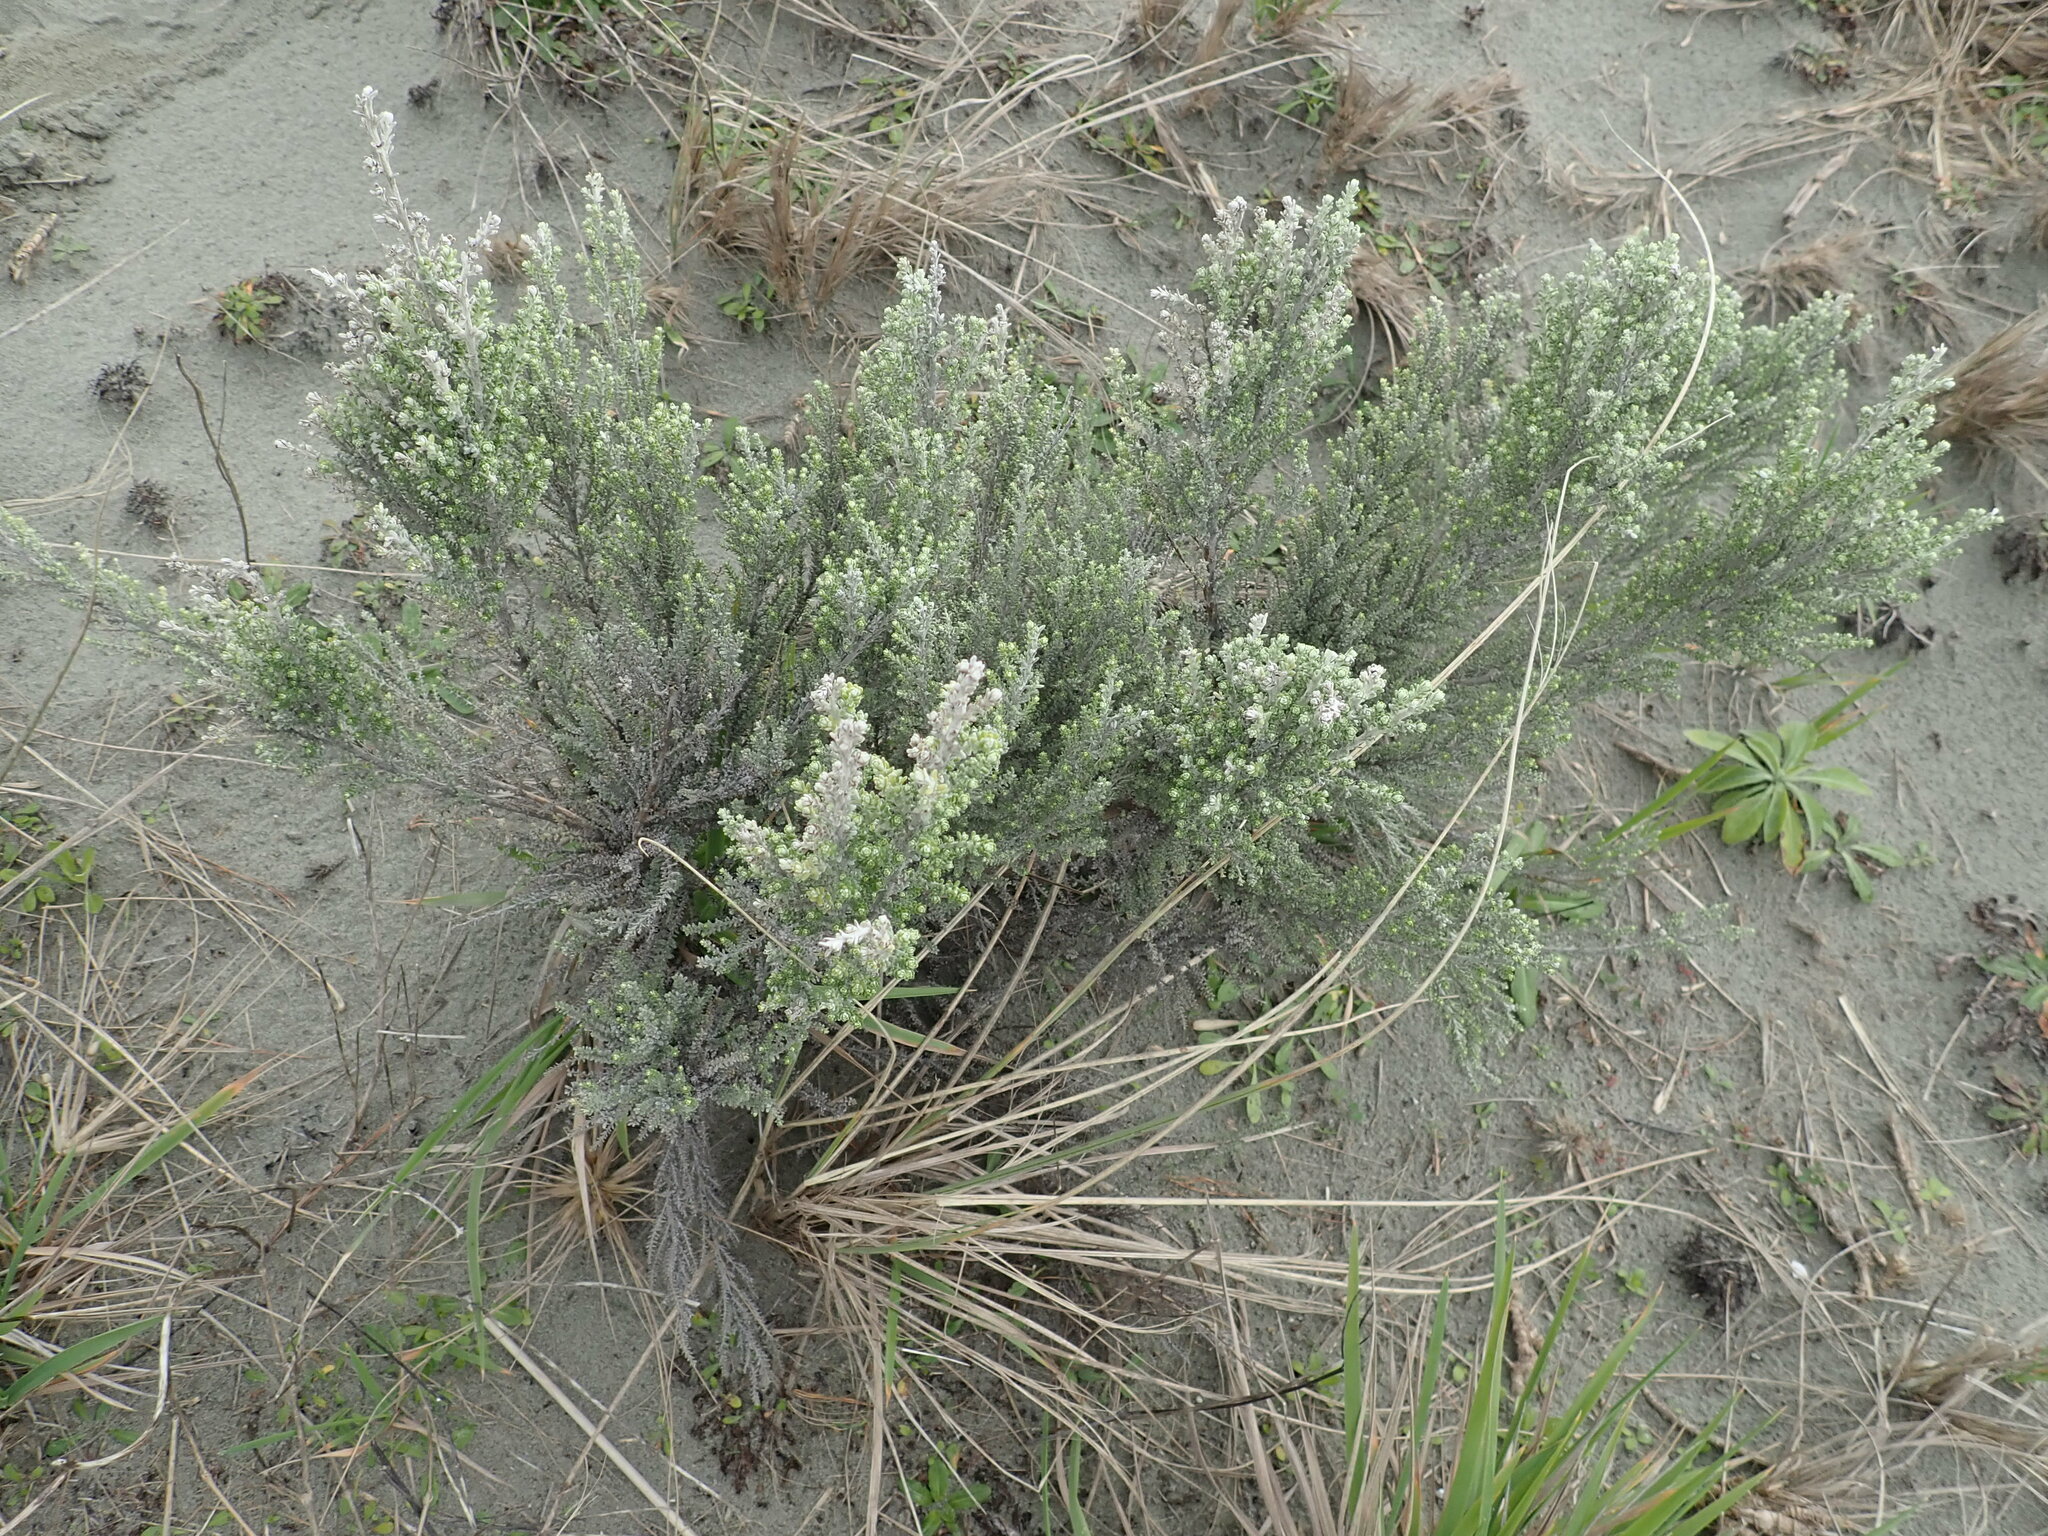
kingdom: Plantae
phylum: Tracheophyta
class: Magnoliopsida
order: Asterales
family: Asteraceae
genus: Ozothamnus
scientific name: Ozothamnus leptophyllus
